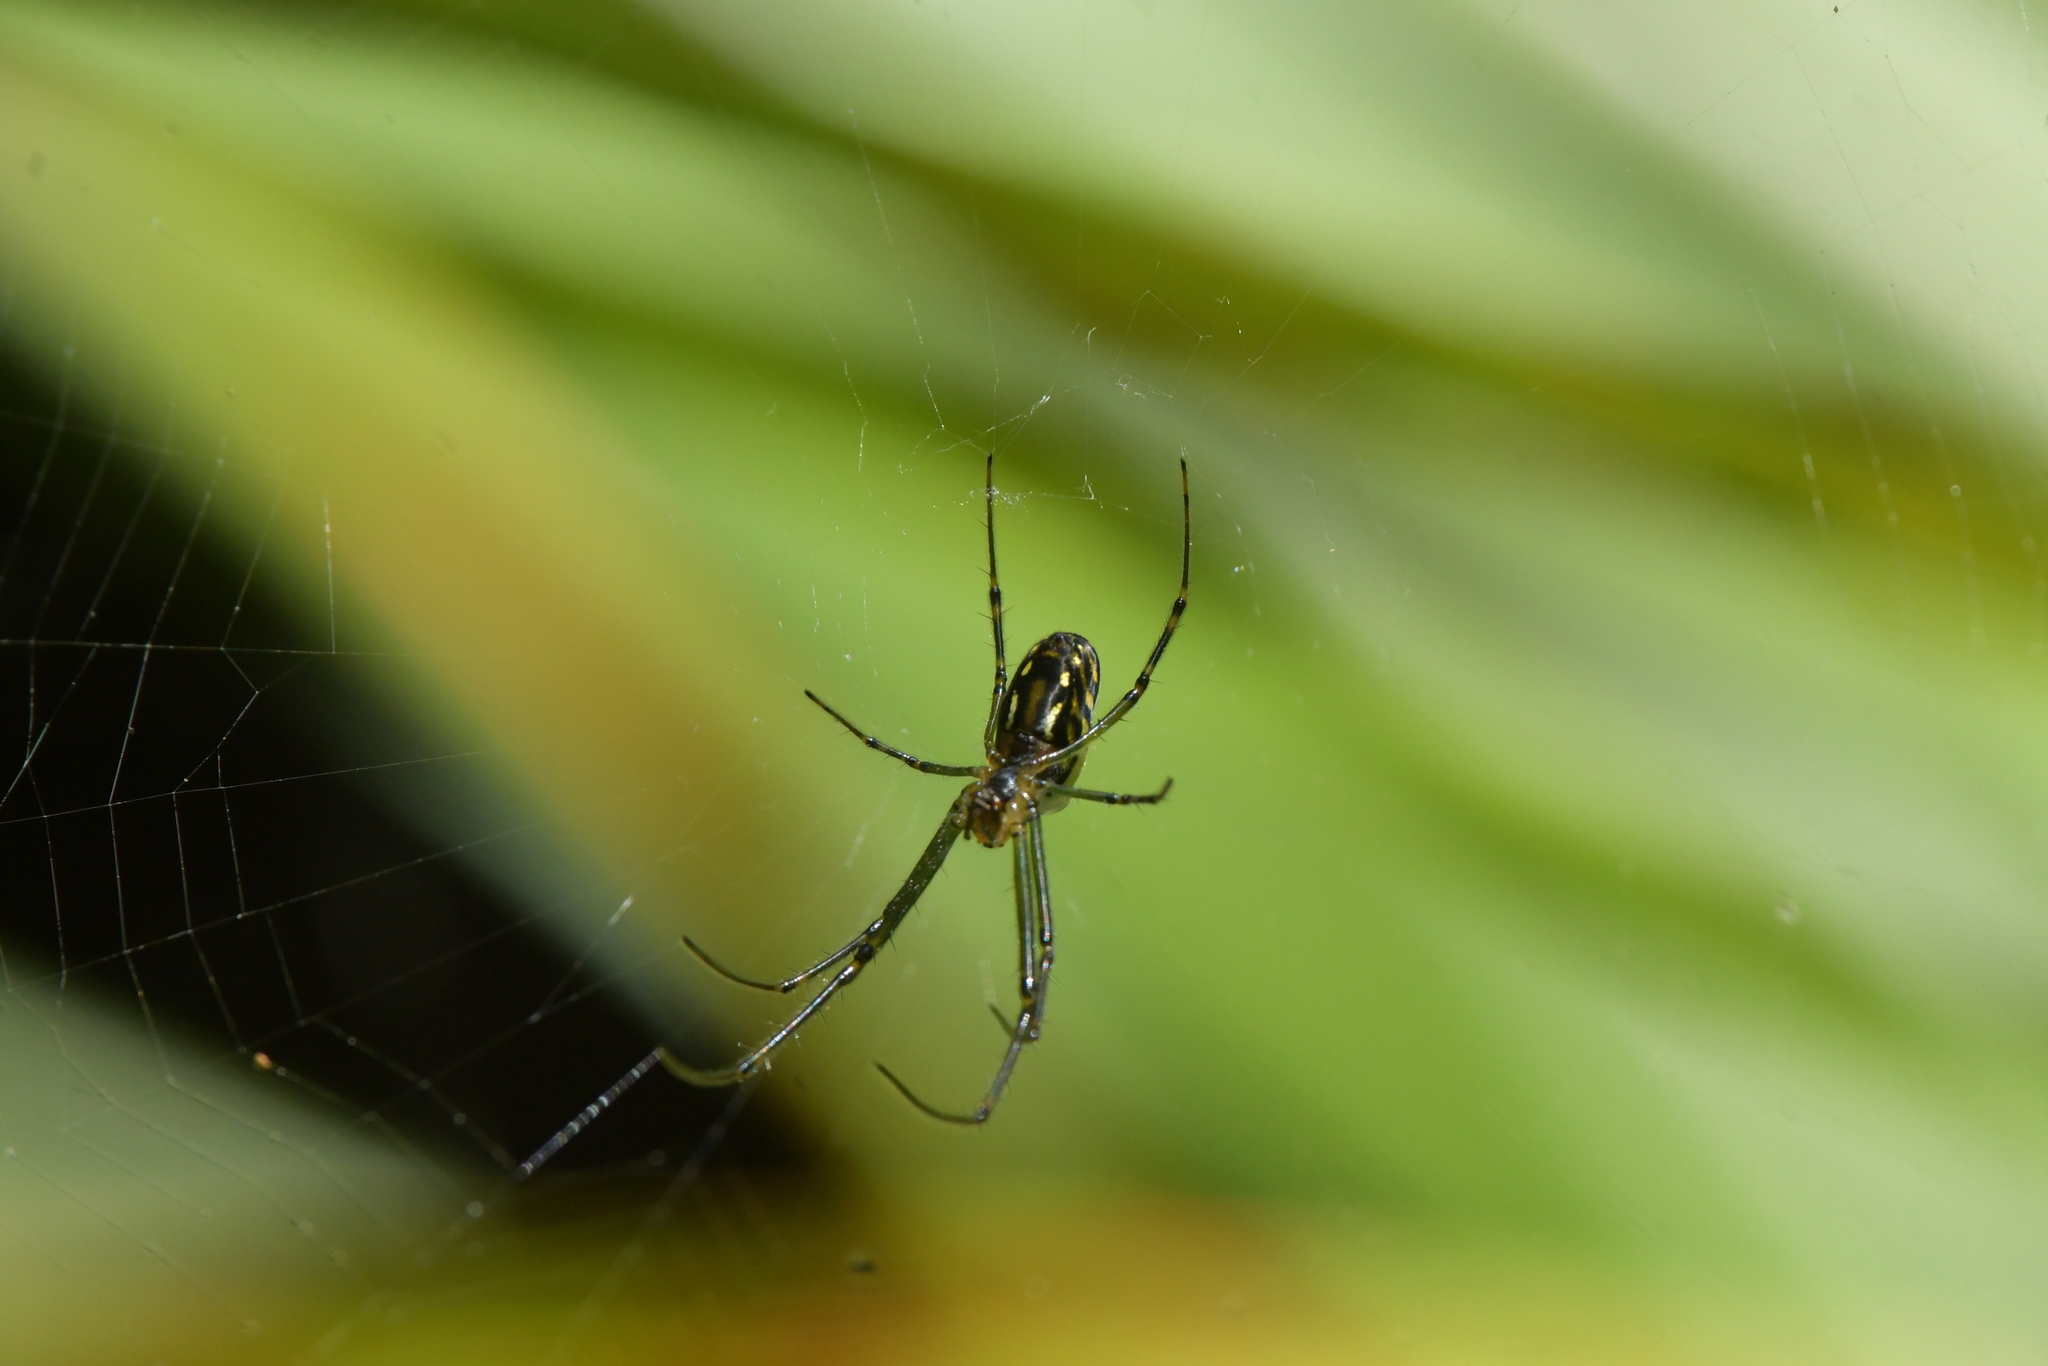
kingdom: Animalia
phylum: Arthropoda
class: Arachnida
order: Araneae
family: Tetragnathidae
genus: Leucauge
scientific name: Leucauge dromedaria
